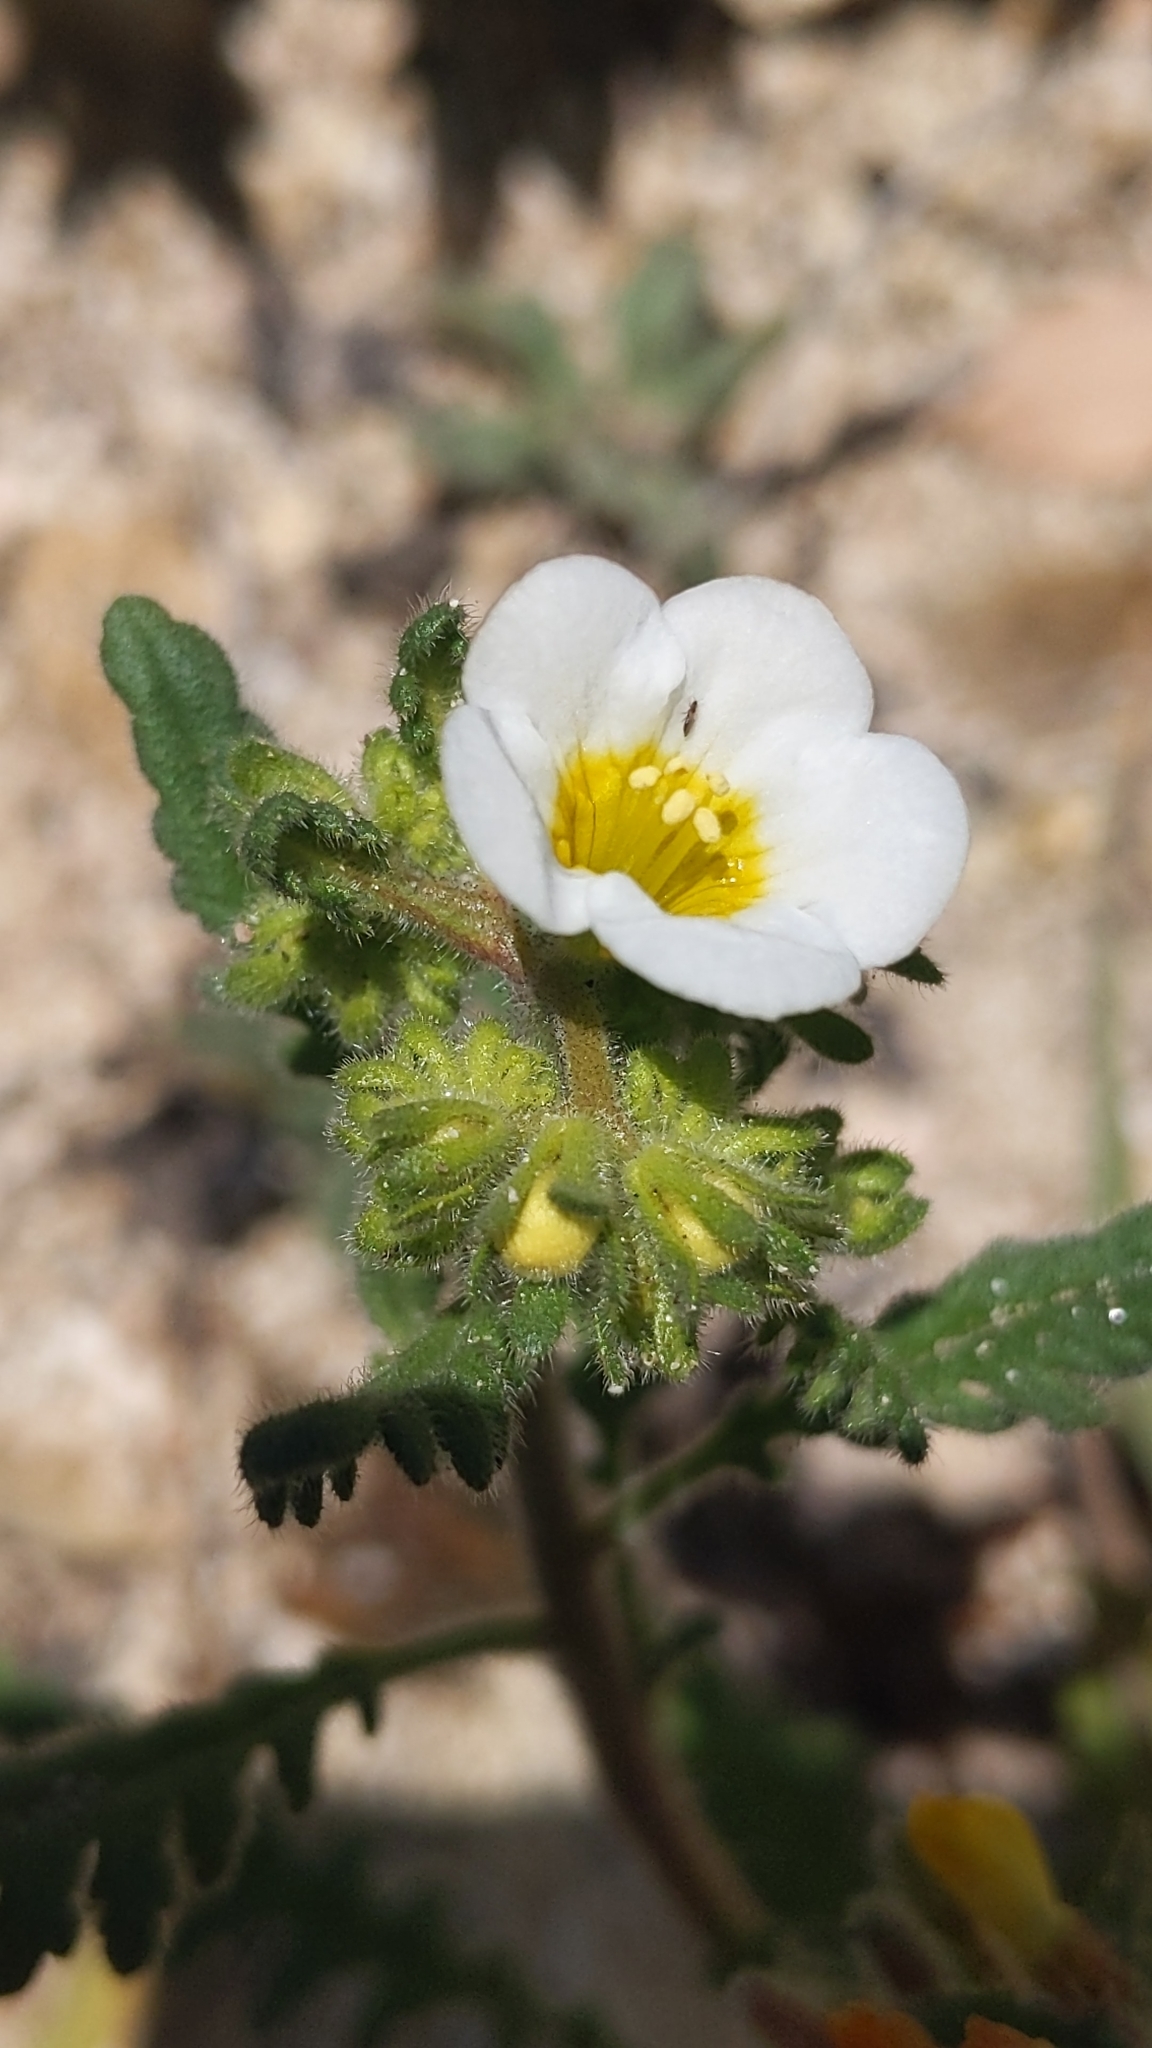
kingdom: Plantae
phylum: Tracheophyta
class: Magnoliopsida
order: Boraginales
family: Hydrophyllaceae
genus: Phacelia
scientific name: Phacelia brachyloba
